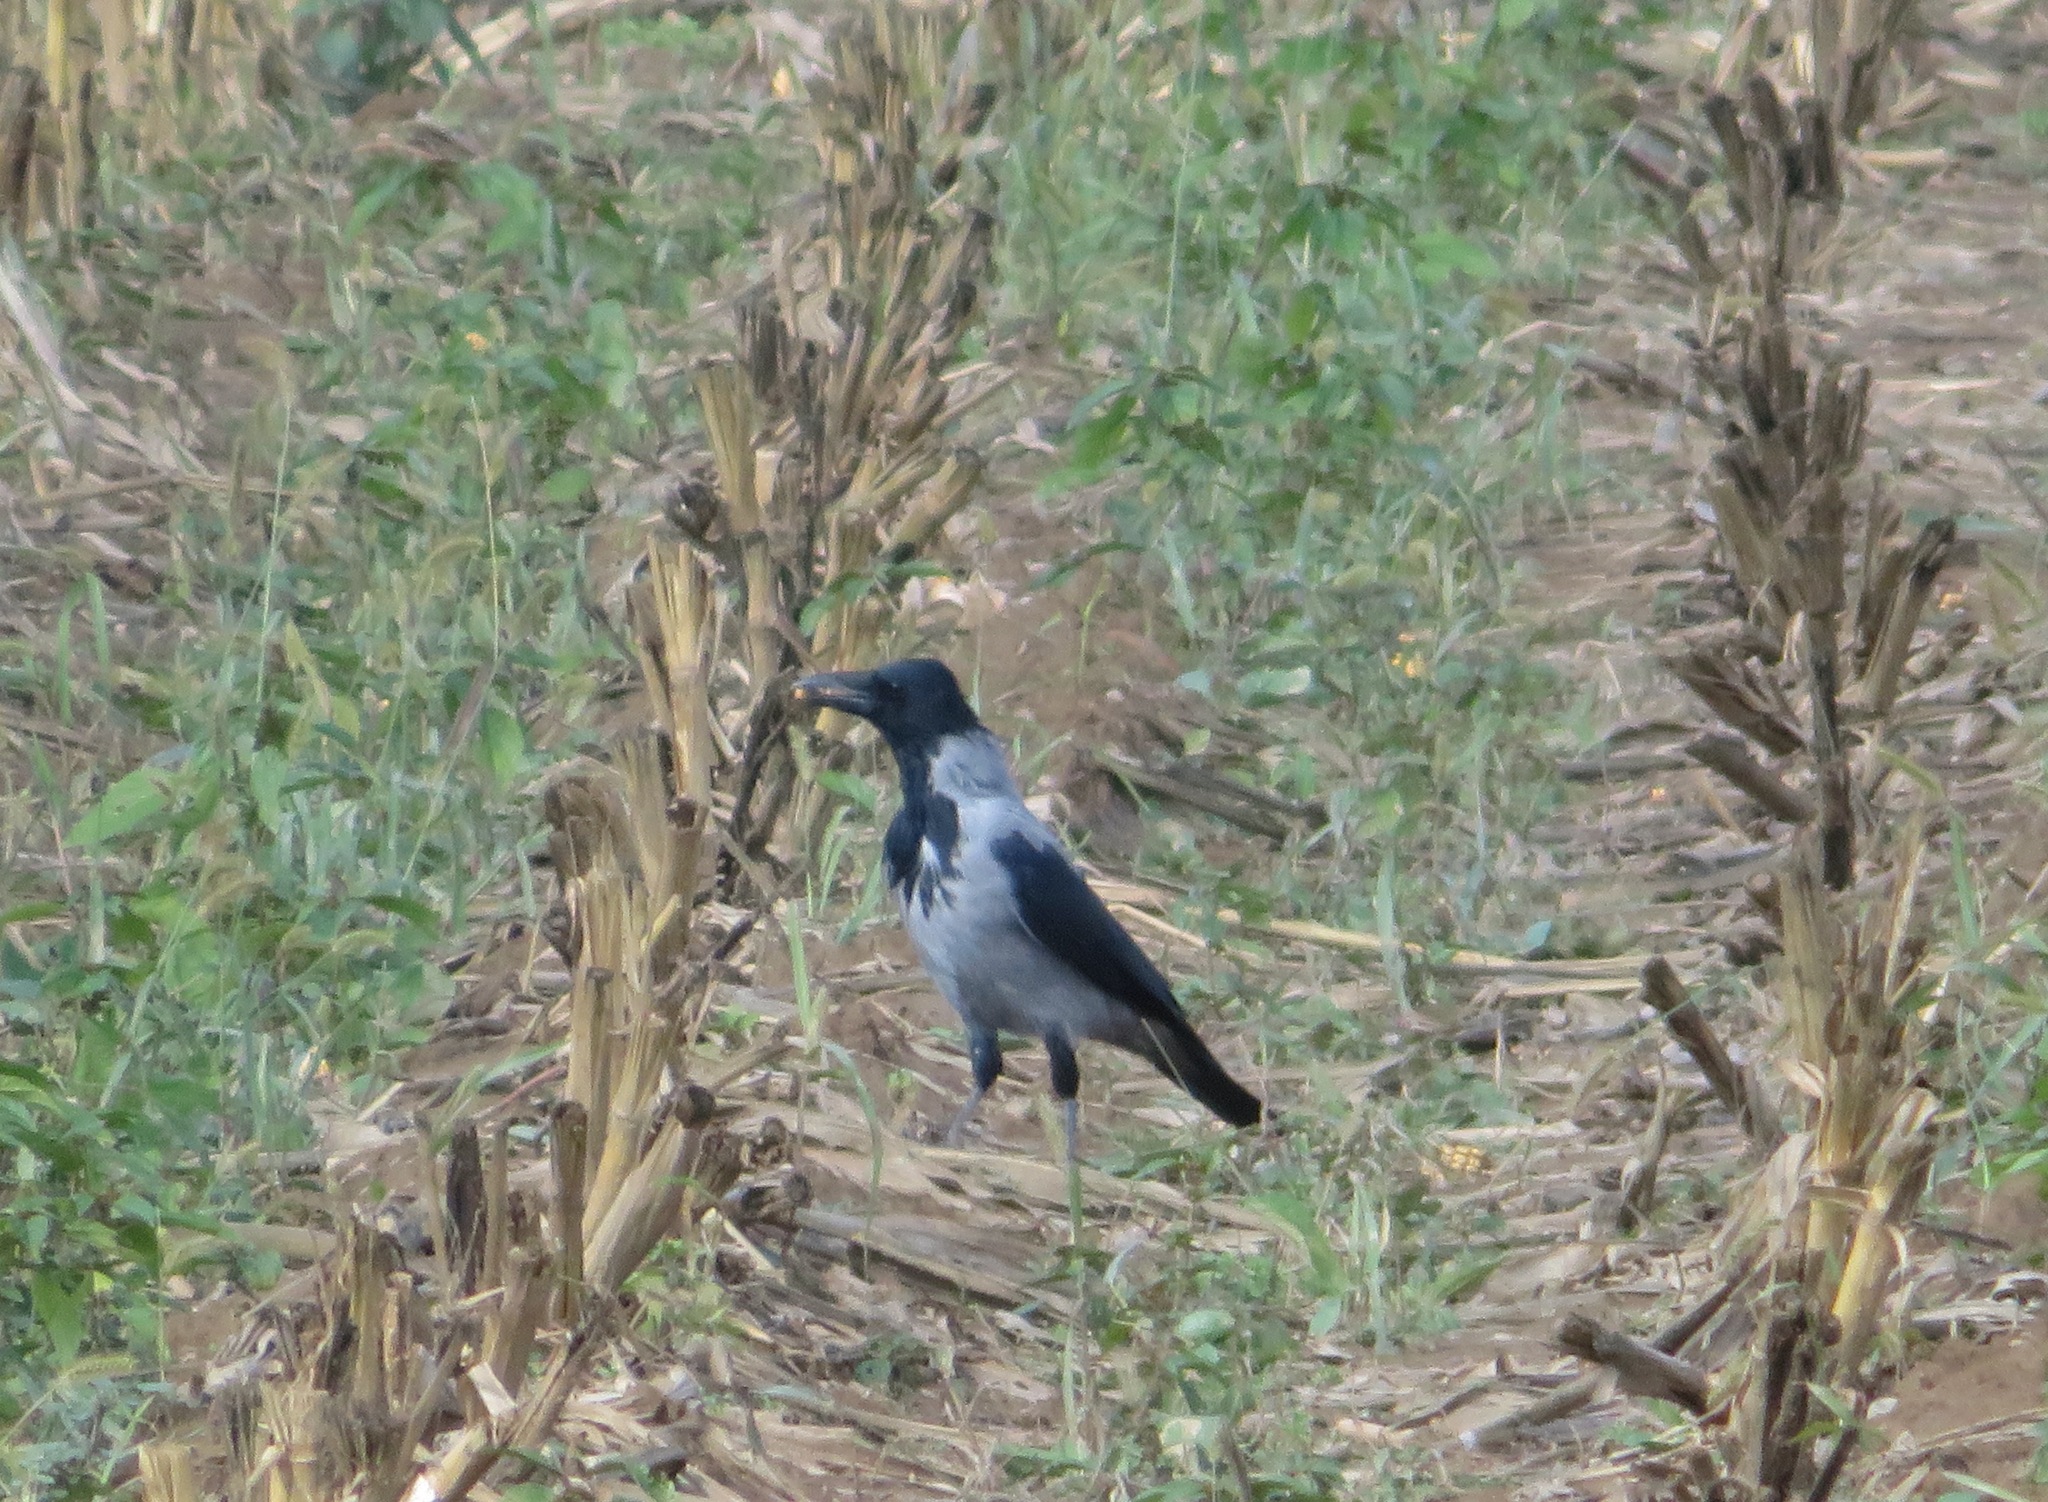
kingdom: Animalia
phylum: Chordata
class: Aves
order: Passeriformes
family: Corvidae
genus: Corvus
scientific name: Corvus cornix
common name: Hooded crow
